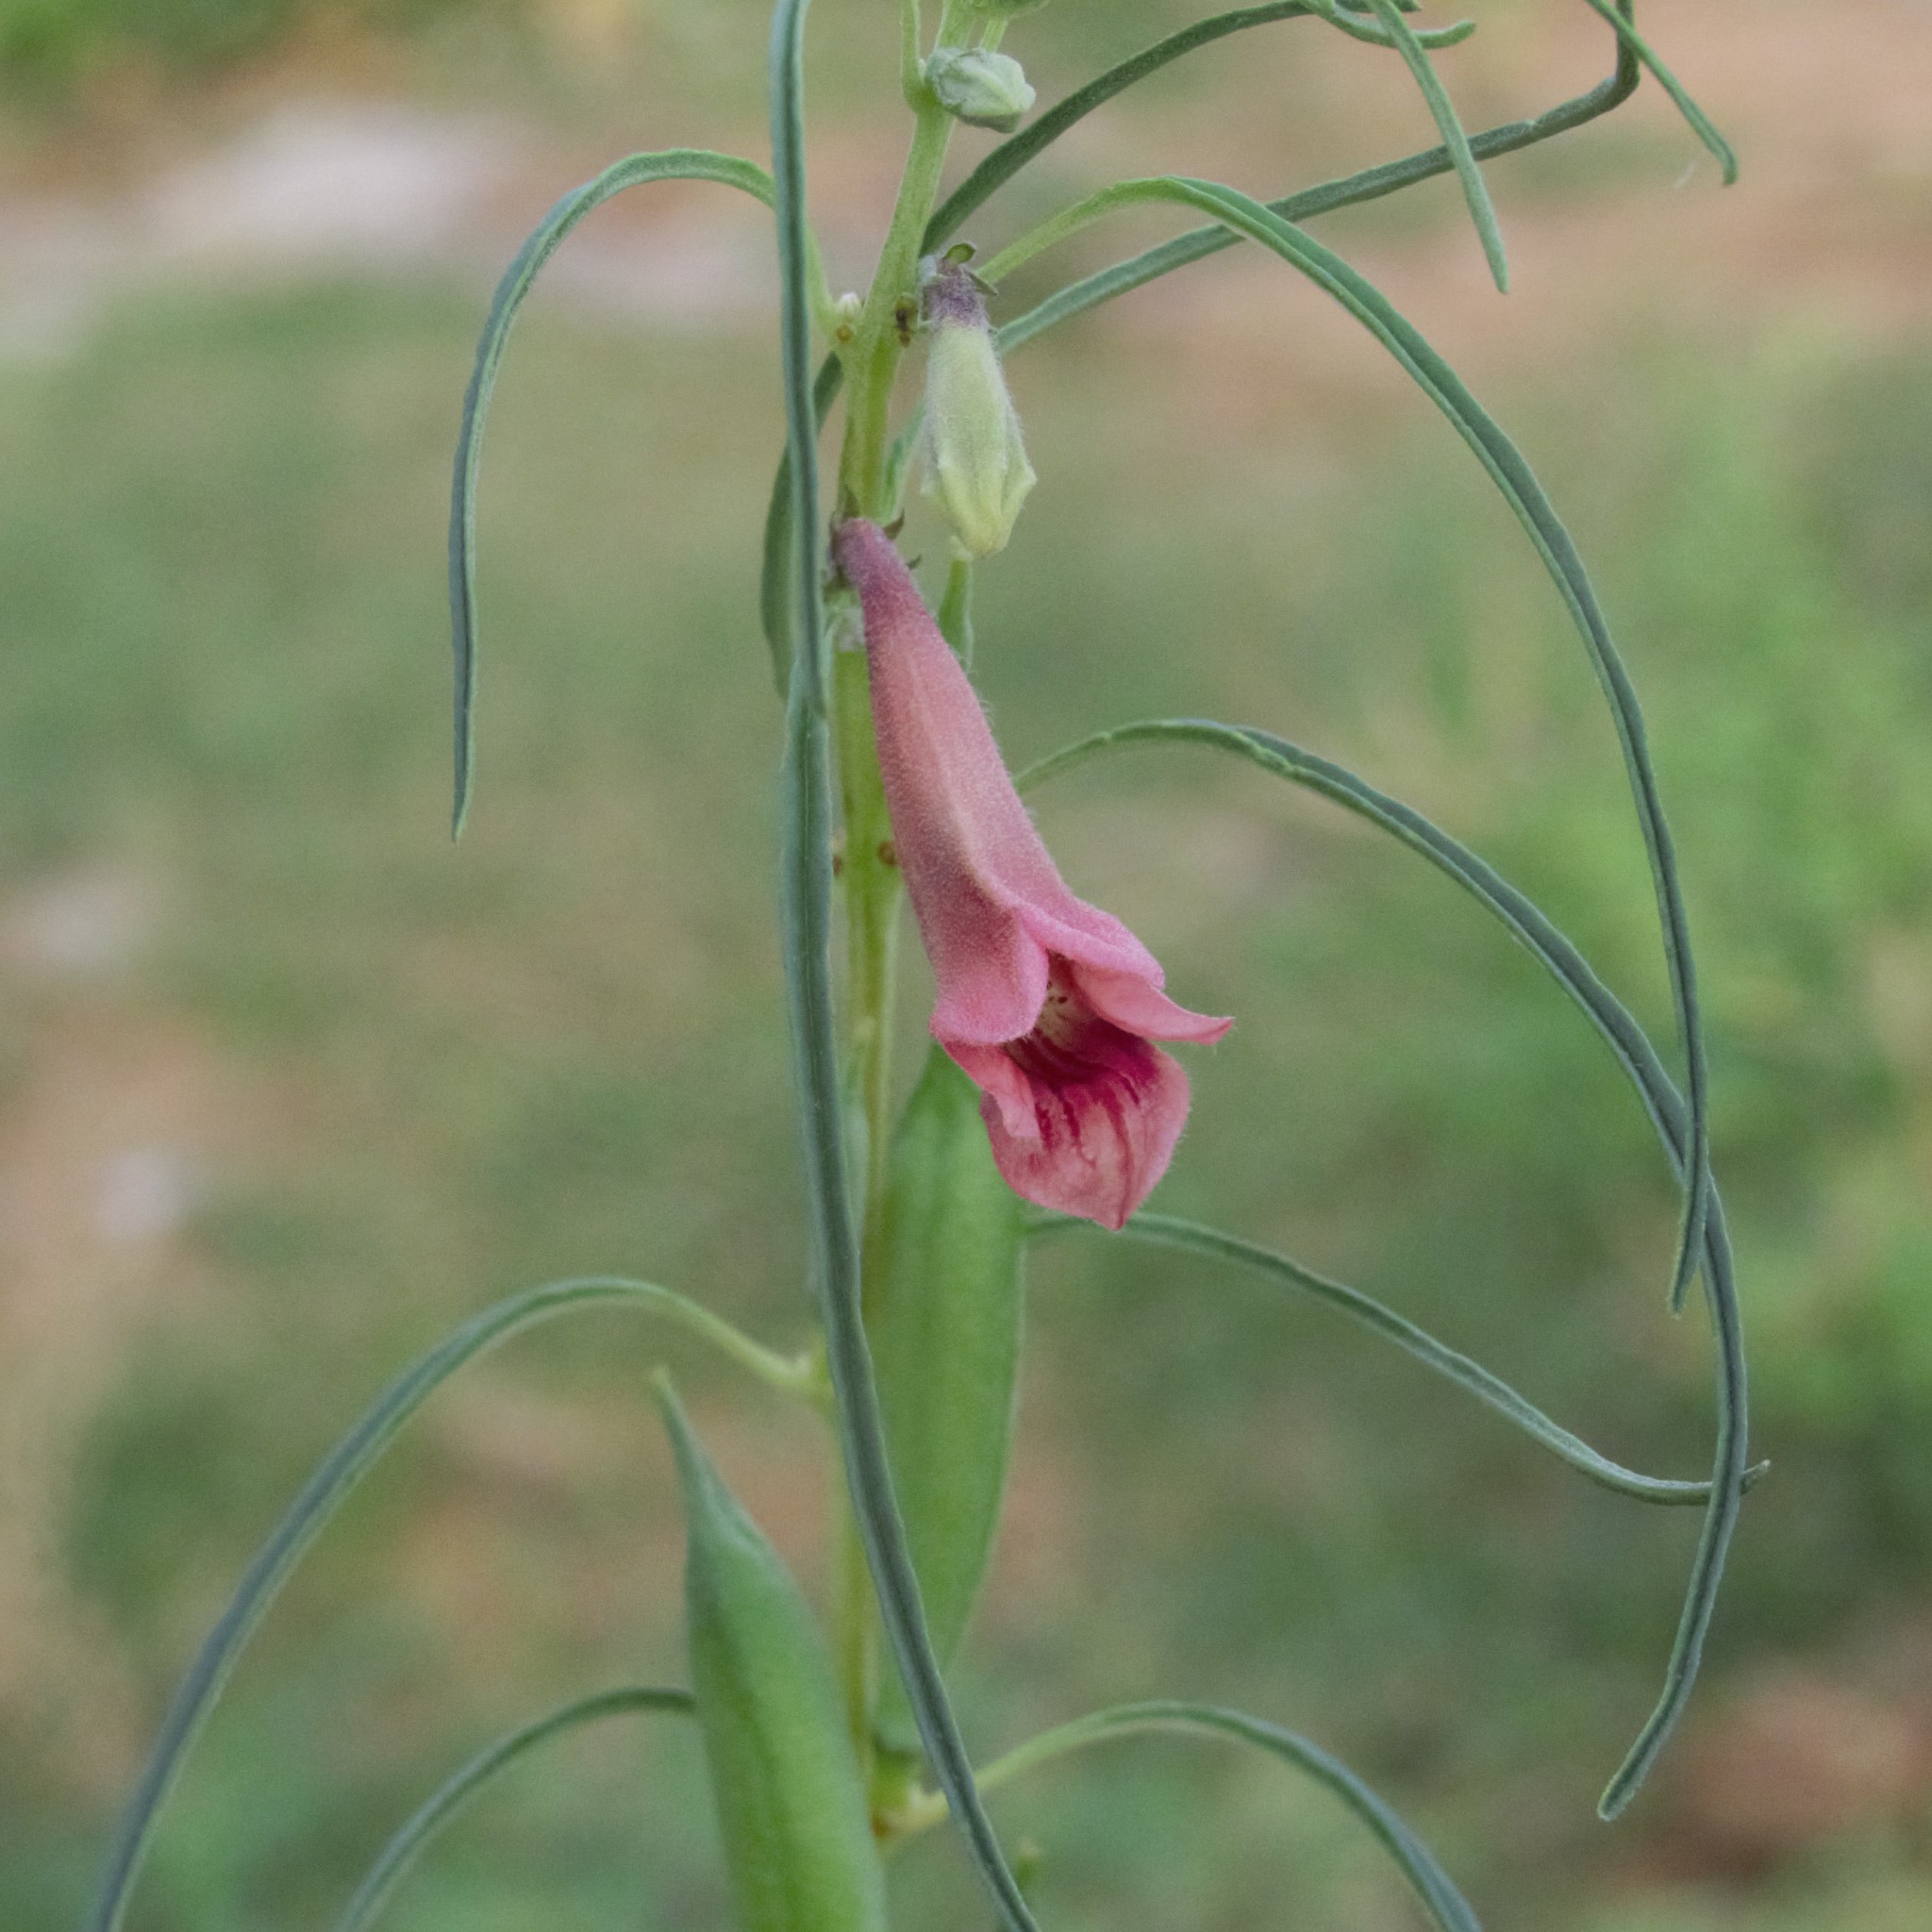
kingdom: Plantae
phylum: Tracheophyta
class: Magnoliopsida
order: Lamiales
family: Pedaliaceae
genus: Sesamum
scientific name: Sesamum alatum
